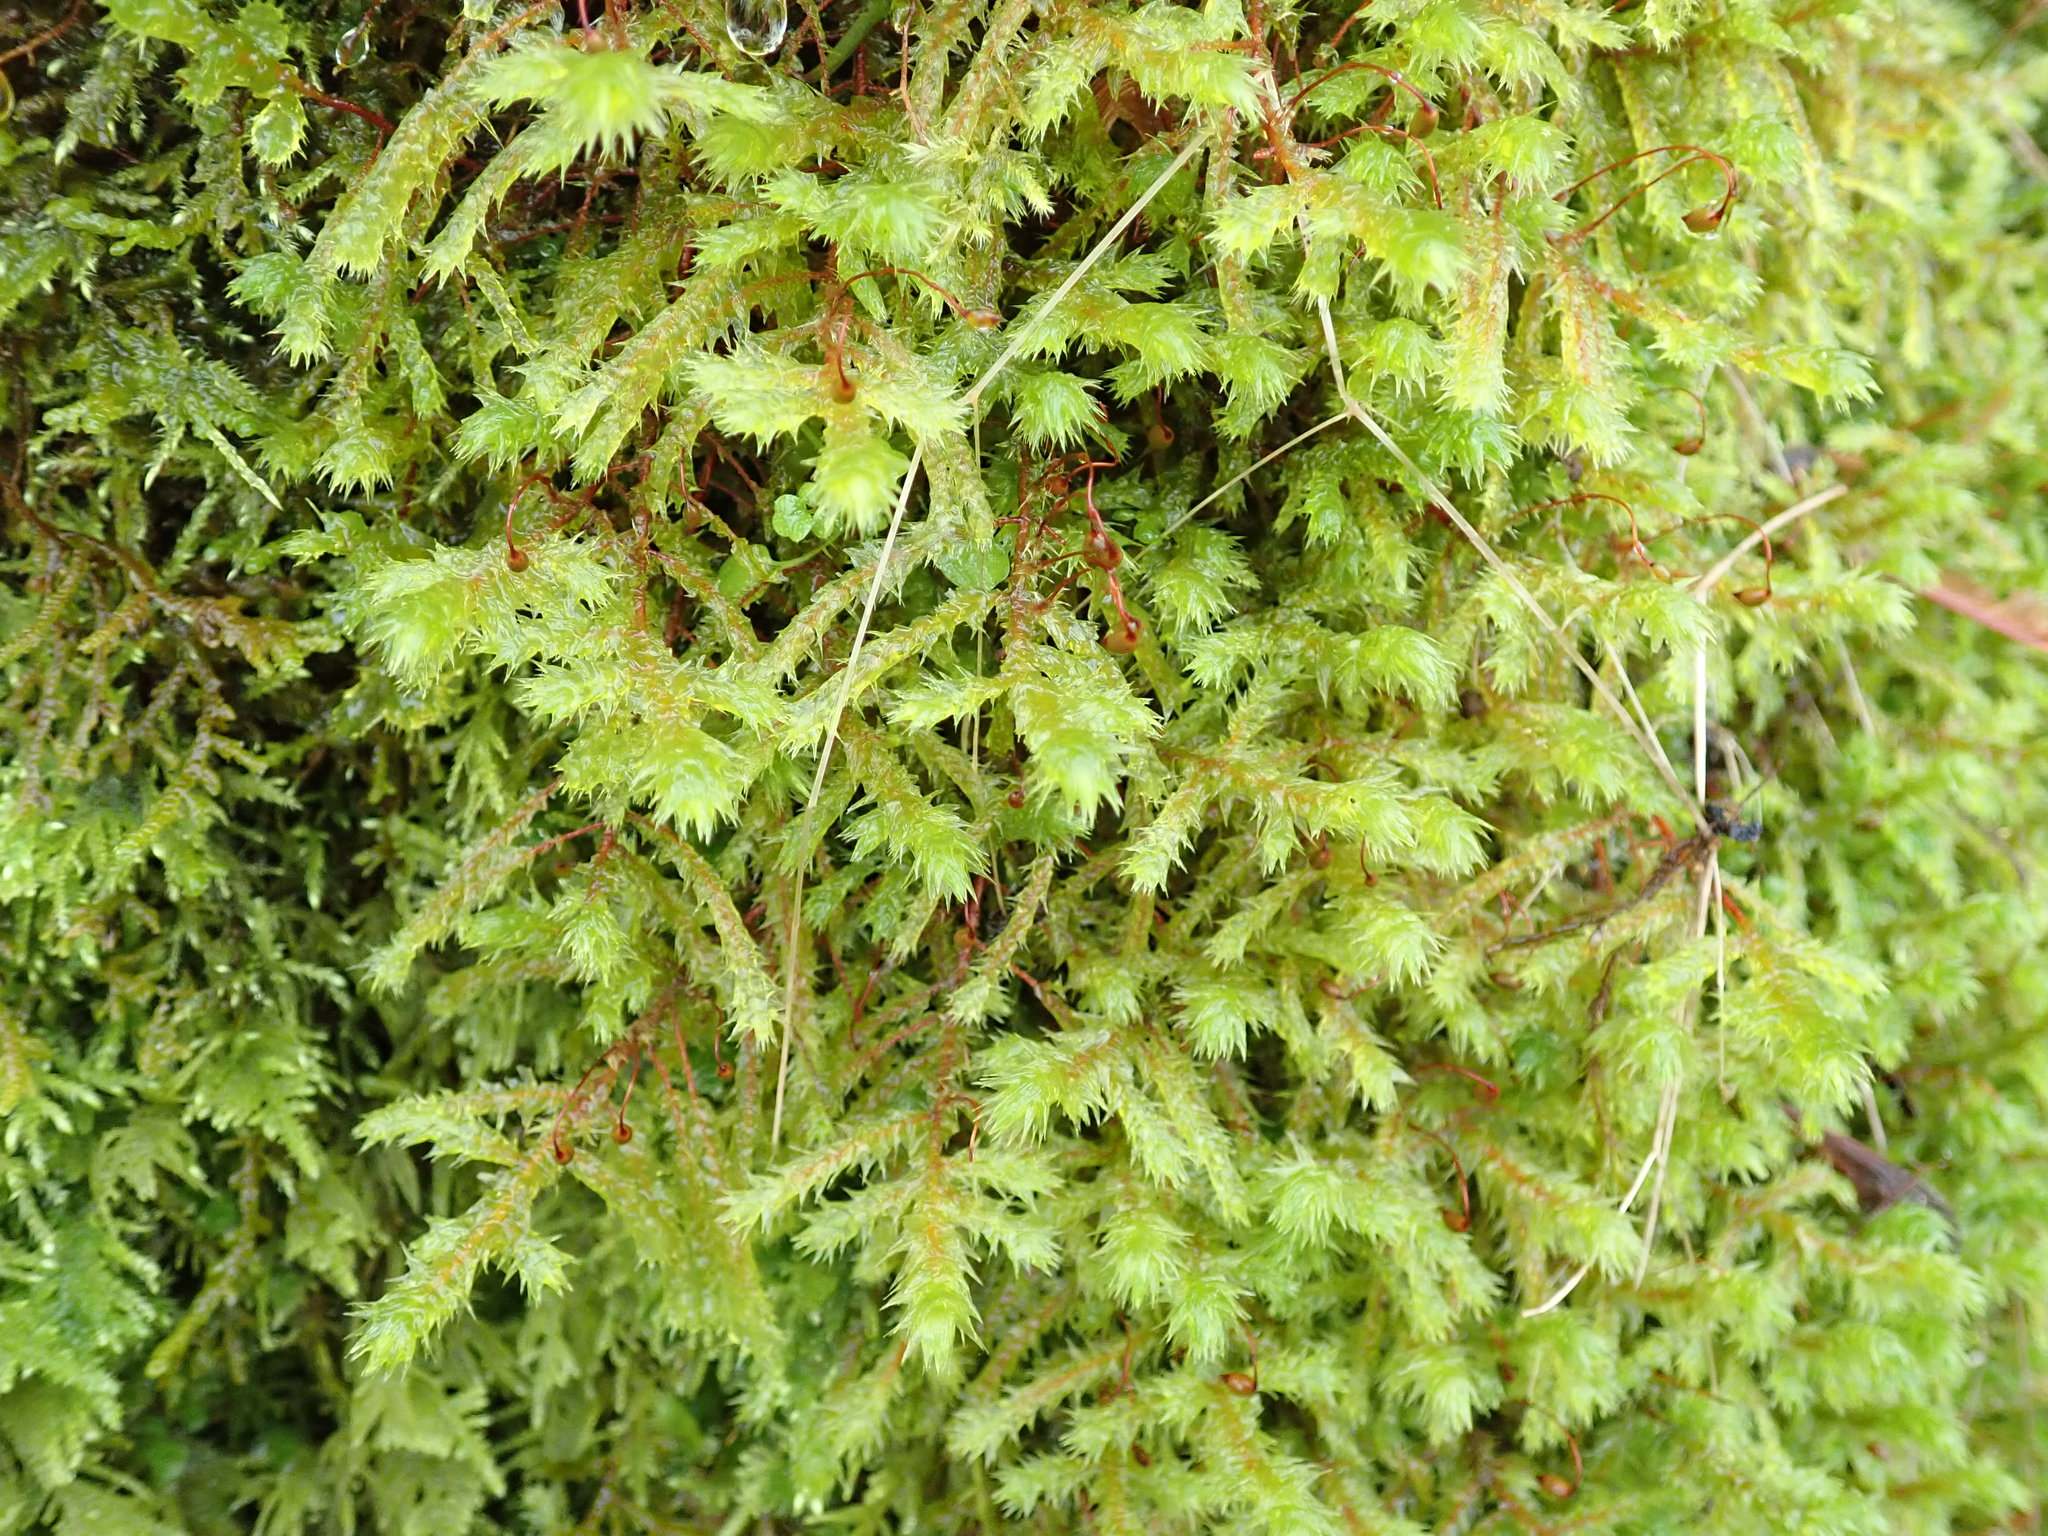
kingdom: Plantae
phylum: Bryophyta
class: Bryopsida
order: Hypnales
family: Hylocomiaceae
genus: Hylocomiadelphus
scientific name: Hylocomiadelphus triquetrus
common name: Rough goose neck moss
